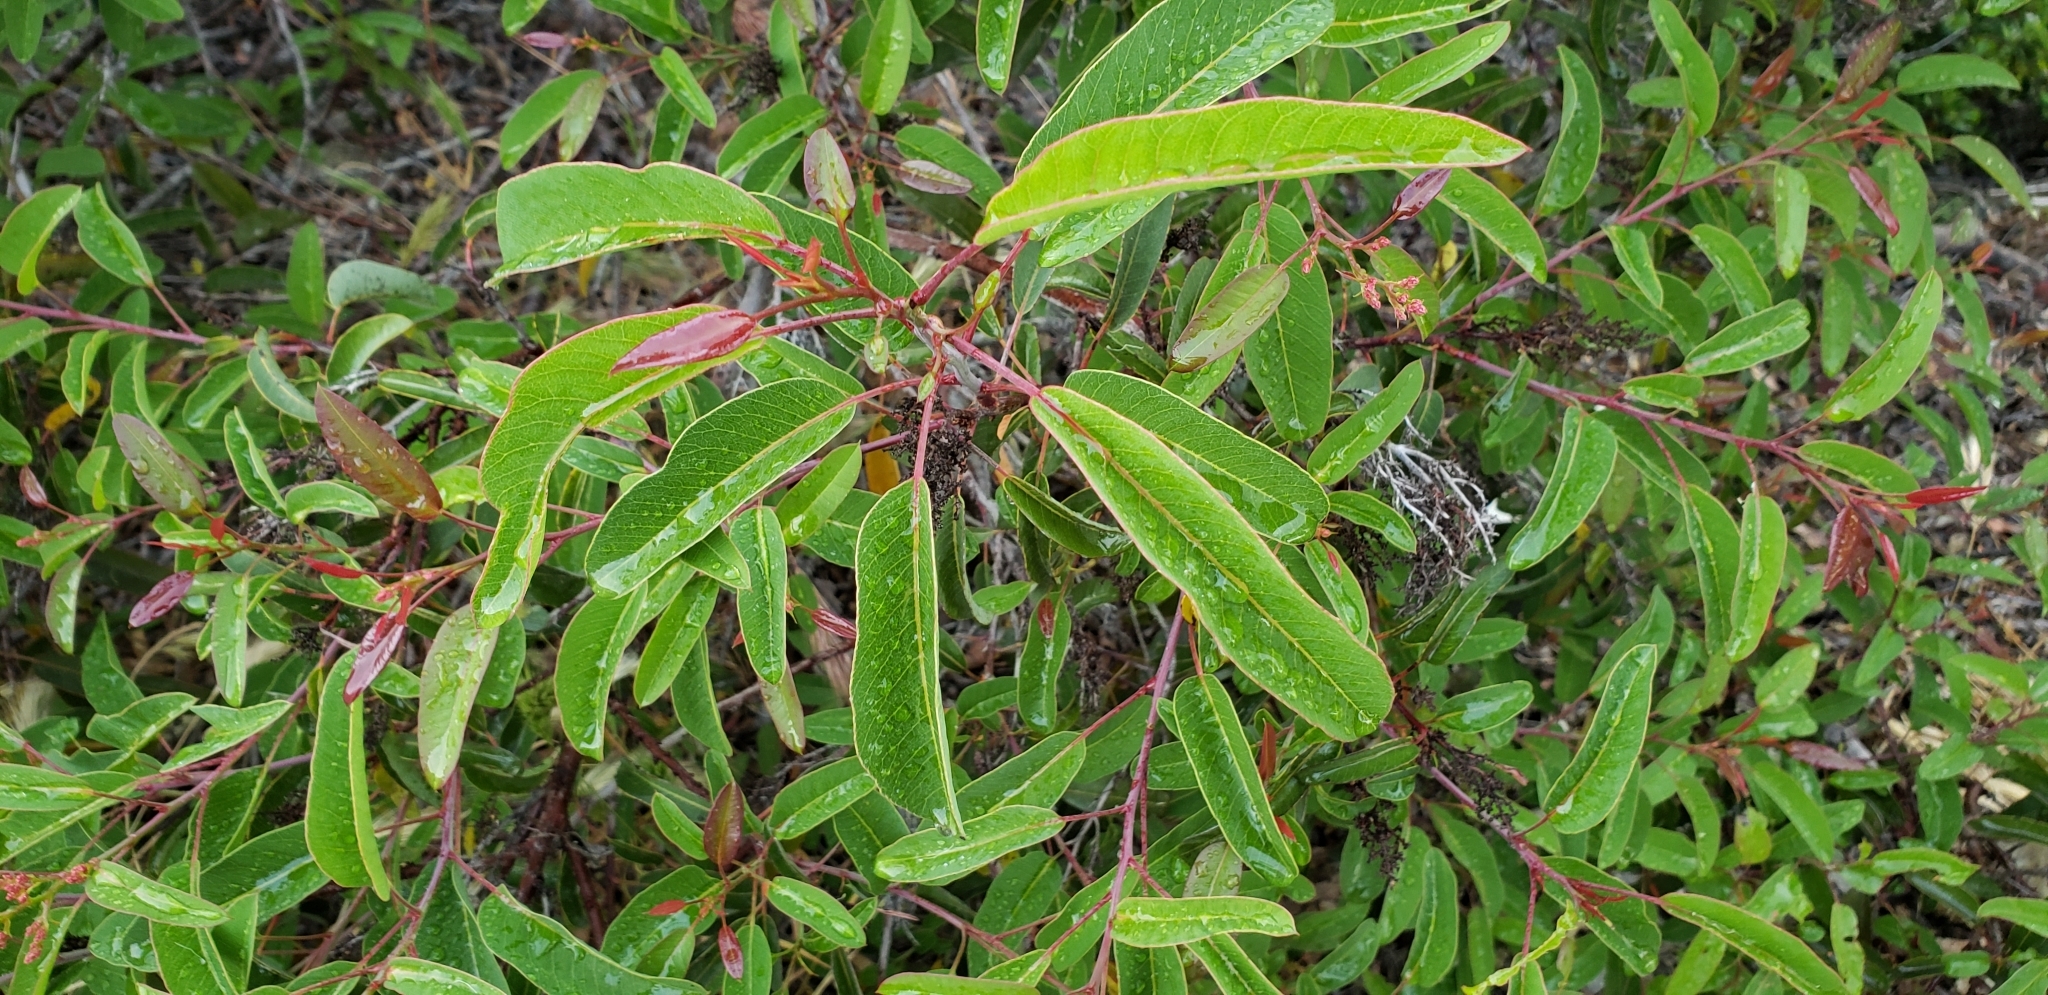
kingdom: Plantae
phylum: Tracheophyta
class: Magnoliopsida
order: Sapindales
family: Anacardiaceae
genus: Malosma
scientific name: Malosma laurina
